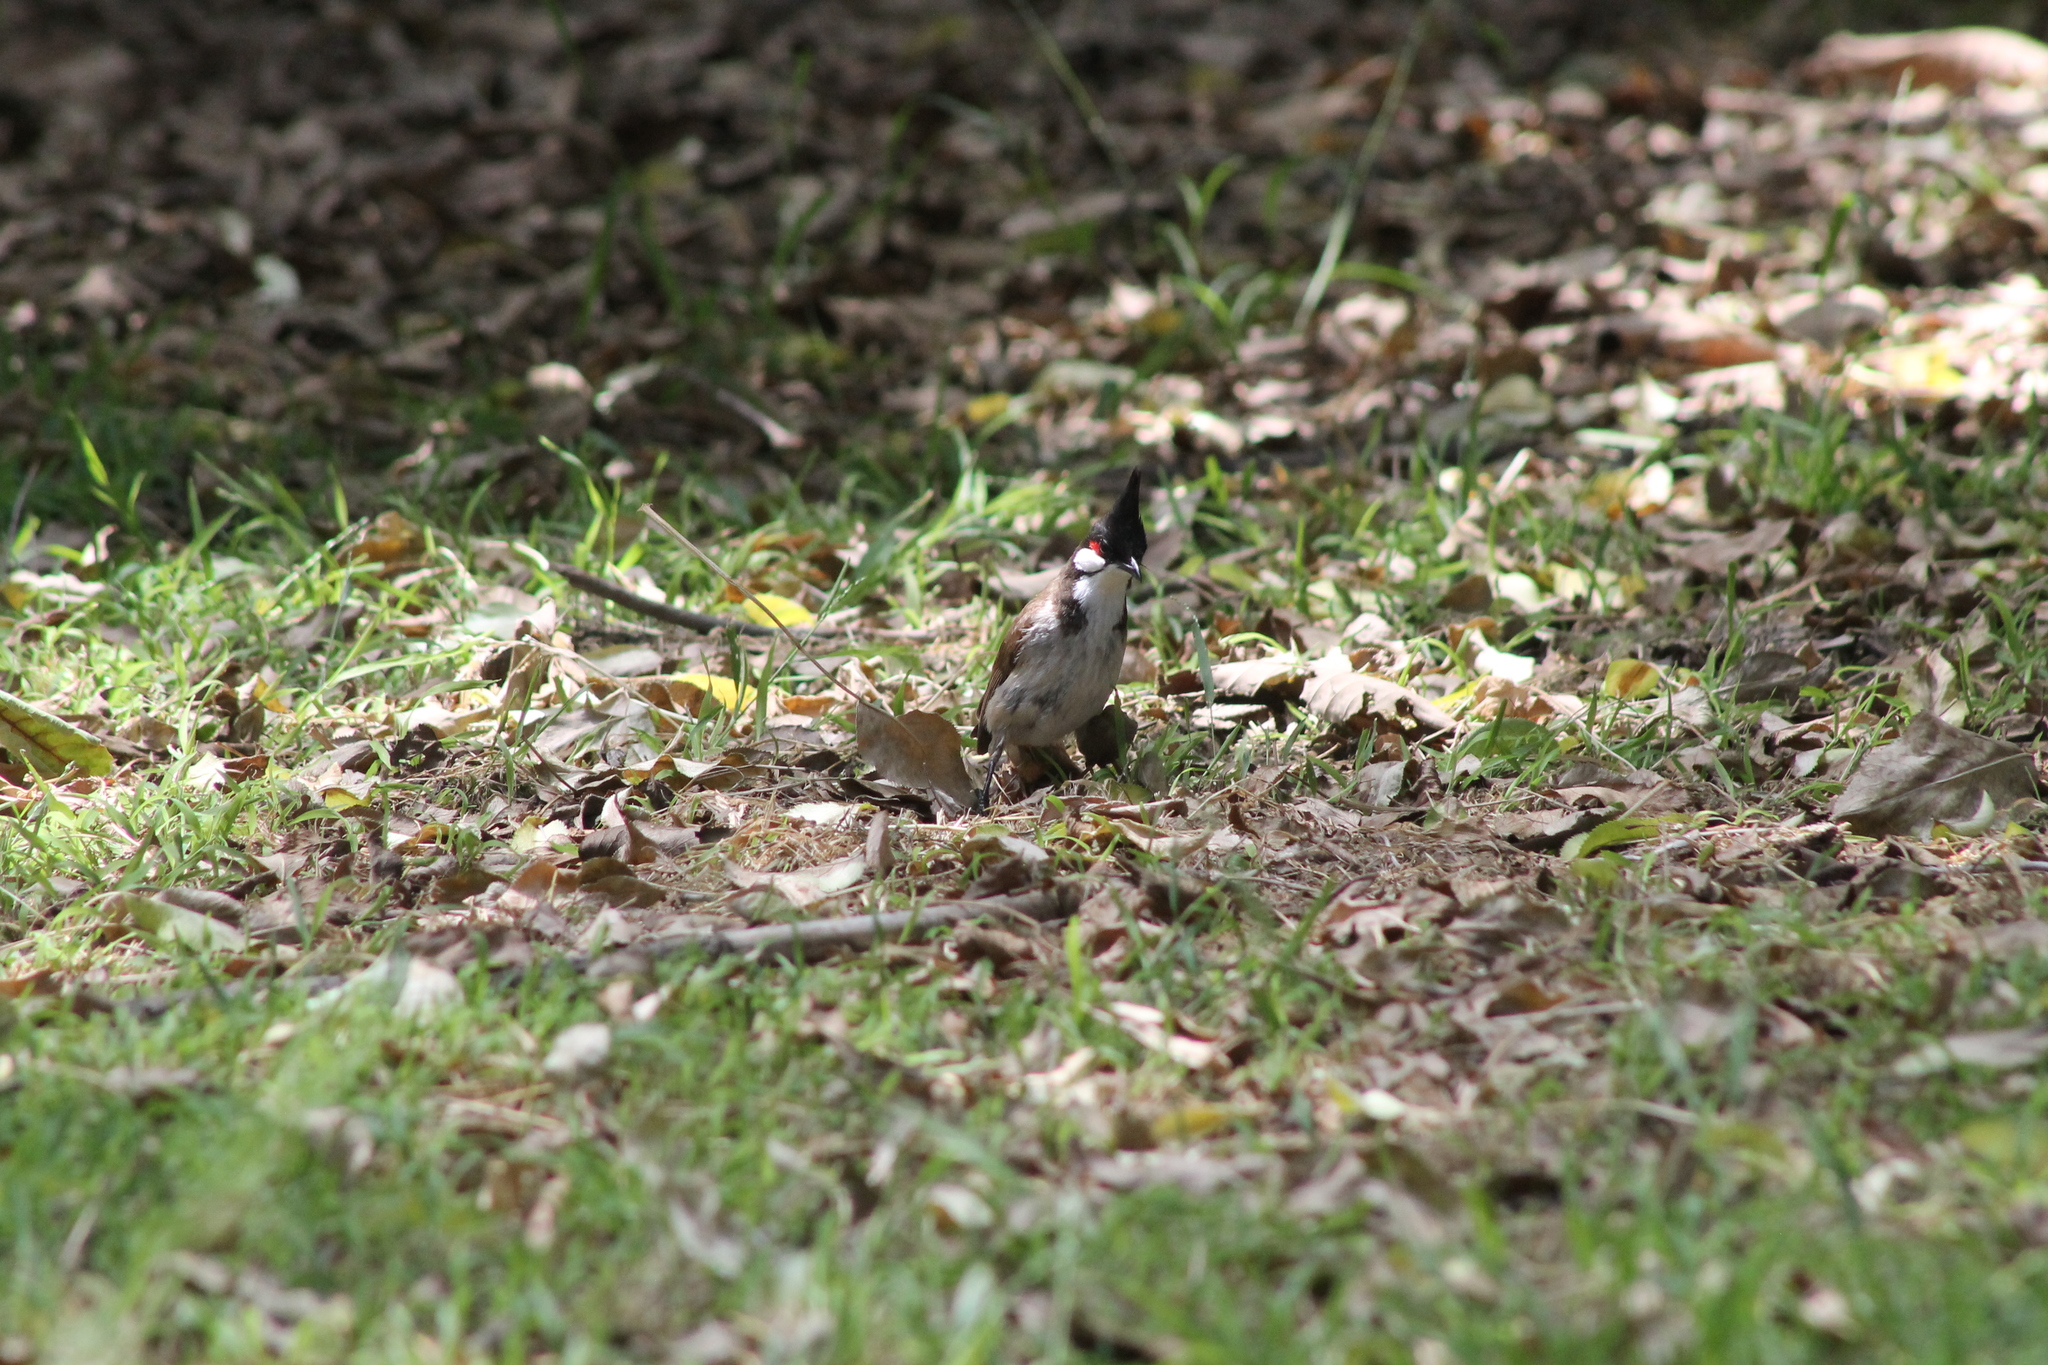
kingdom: Animalia
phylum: Chordata
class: Aves
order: Passeriformes
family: Pycnonotidae
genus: Pycnonotus
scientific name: Pycnonotus jocosus
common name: Red-whiskered bulbul
